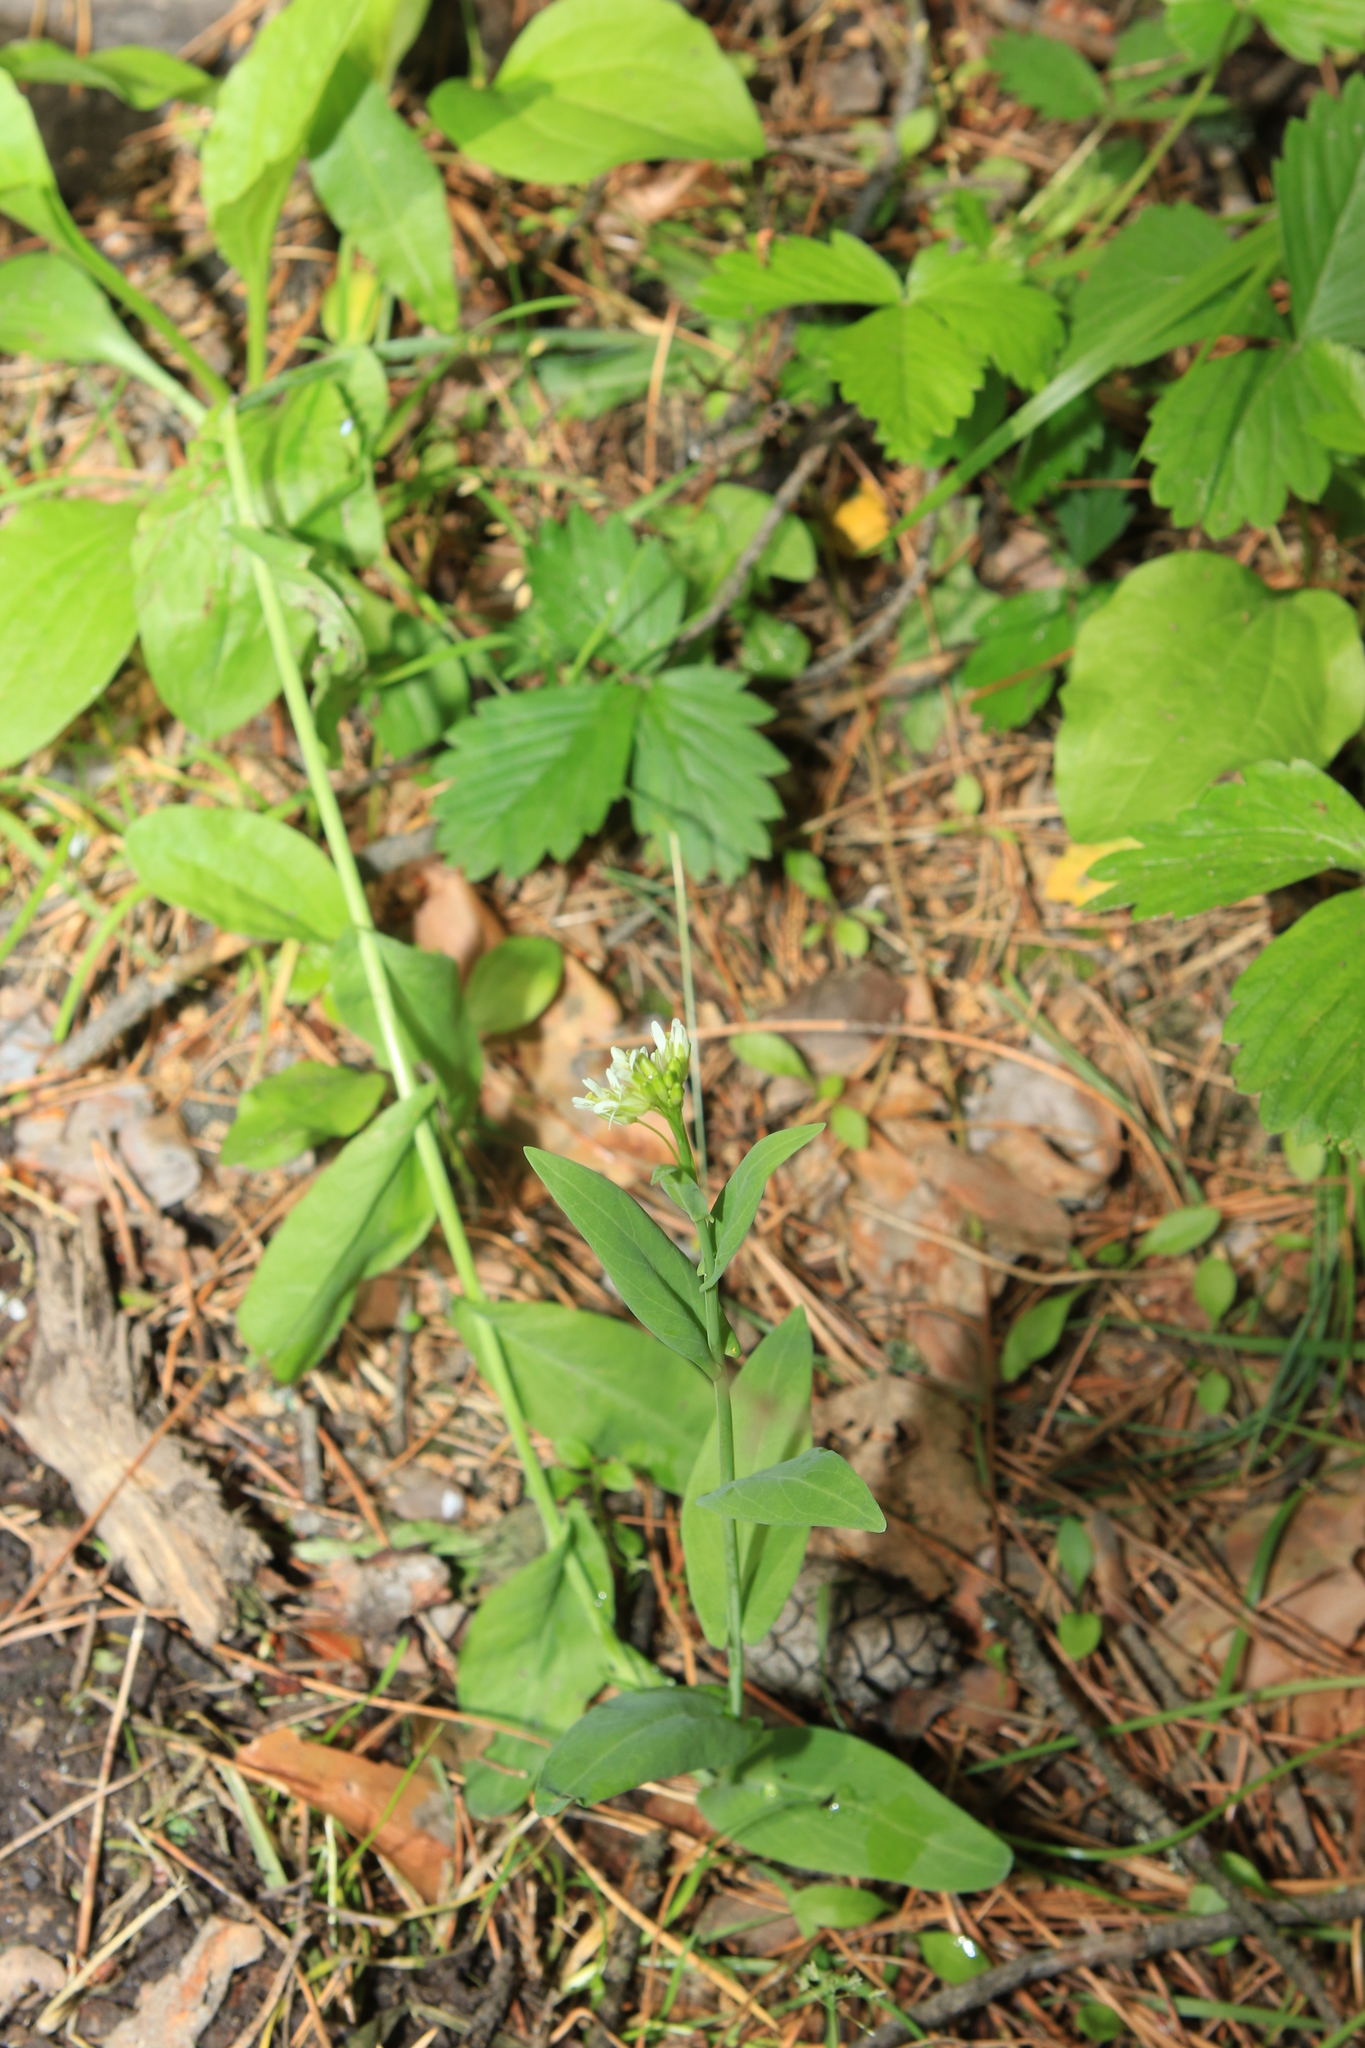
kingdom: Plantae
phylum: Tracheophyta
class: Magnoliopsida
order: Brassicales
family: Brassicaceae
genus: Turritis
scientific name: Turritis glabra
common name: Tower rockcress
